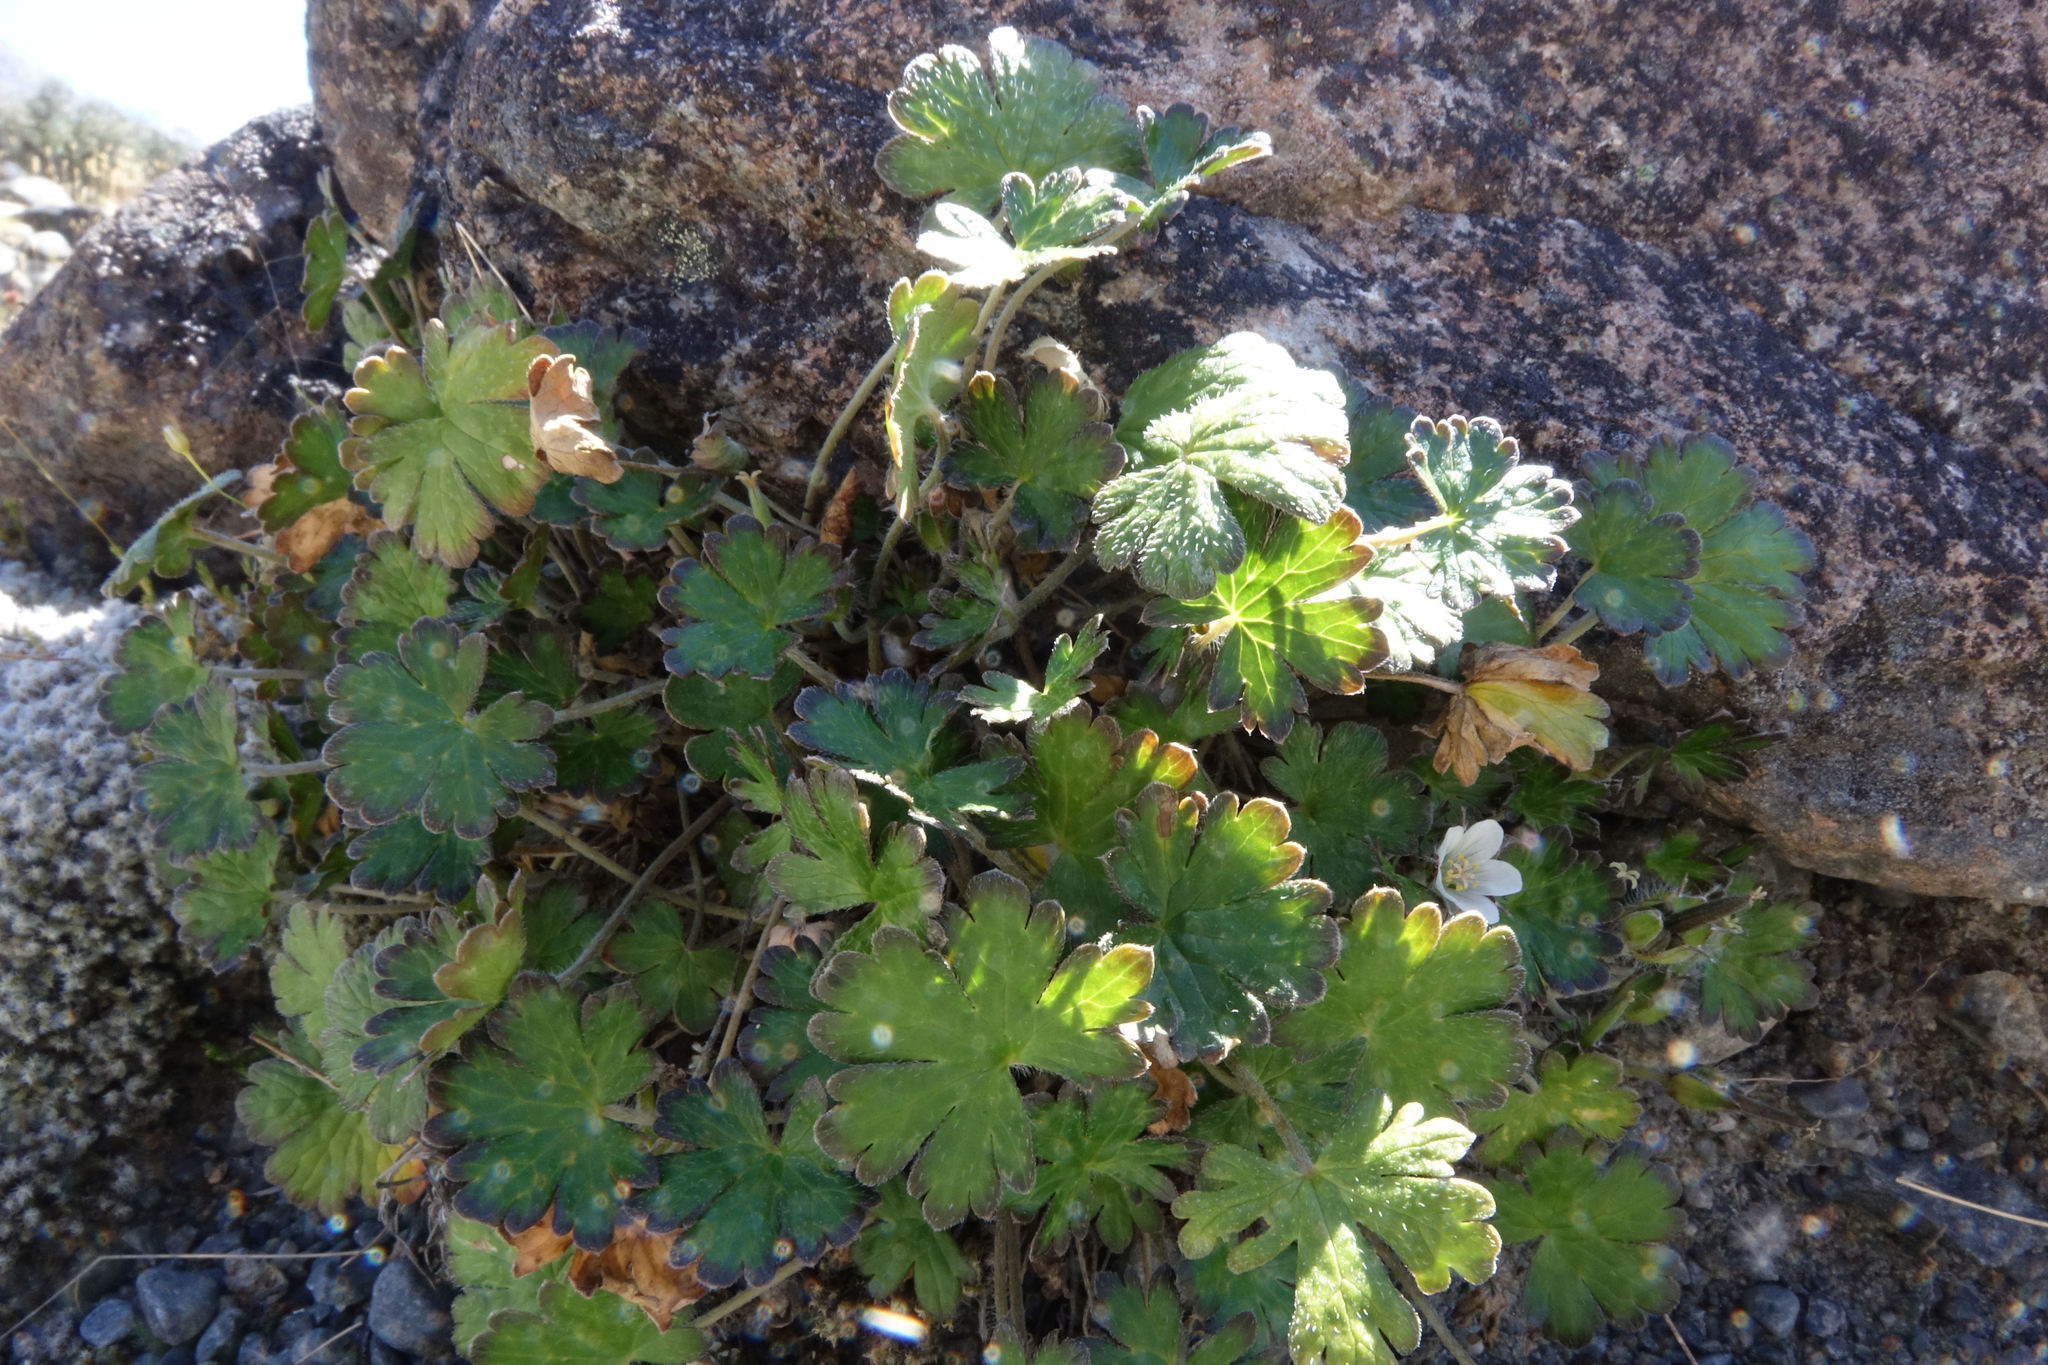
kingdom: Plantae
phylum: Tracheophyta
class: Magnoliopsida
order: Geraniales
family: Geraniaceae
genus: Geranium
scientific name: Geranium brevicaule
